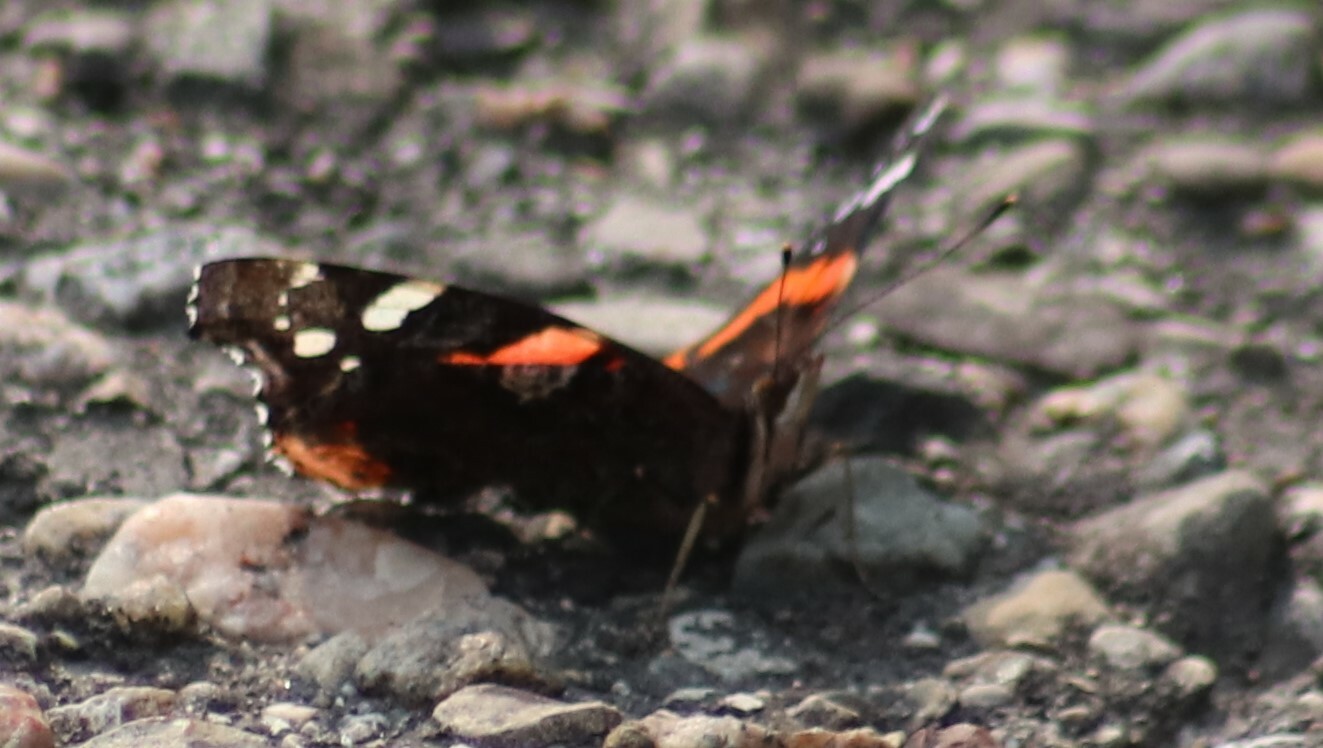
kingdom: Animalia
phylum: Arthropoda
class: Insecta
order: Lepidoptera
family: Nymphalidae
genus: Vanessa
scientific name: Vanessa atalanta
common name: Red admiral
